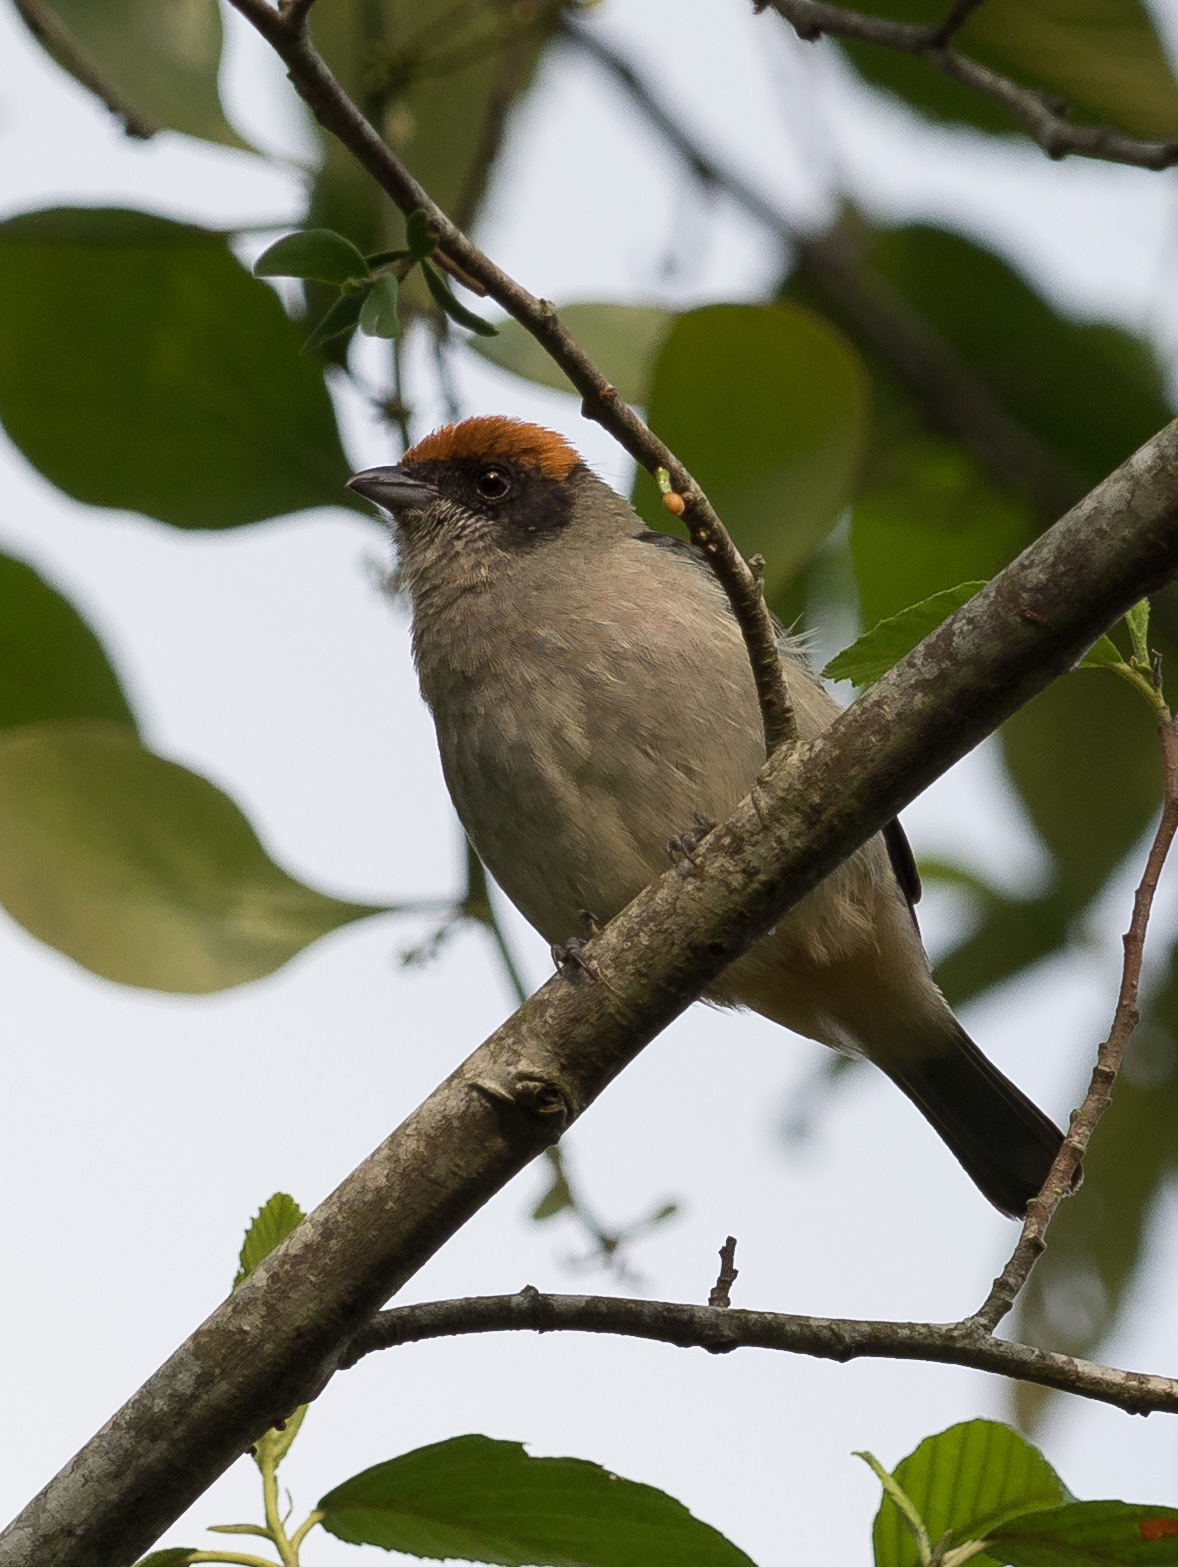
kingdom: Animalia
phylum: Chordata
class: Aves
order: Passeriformes
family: Thraupidae
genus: Stilpnia
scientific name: Stilpnia vitriolina
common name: Scrub tanager
